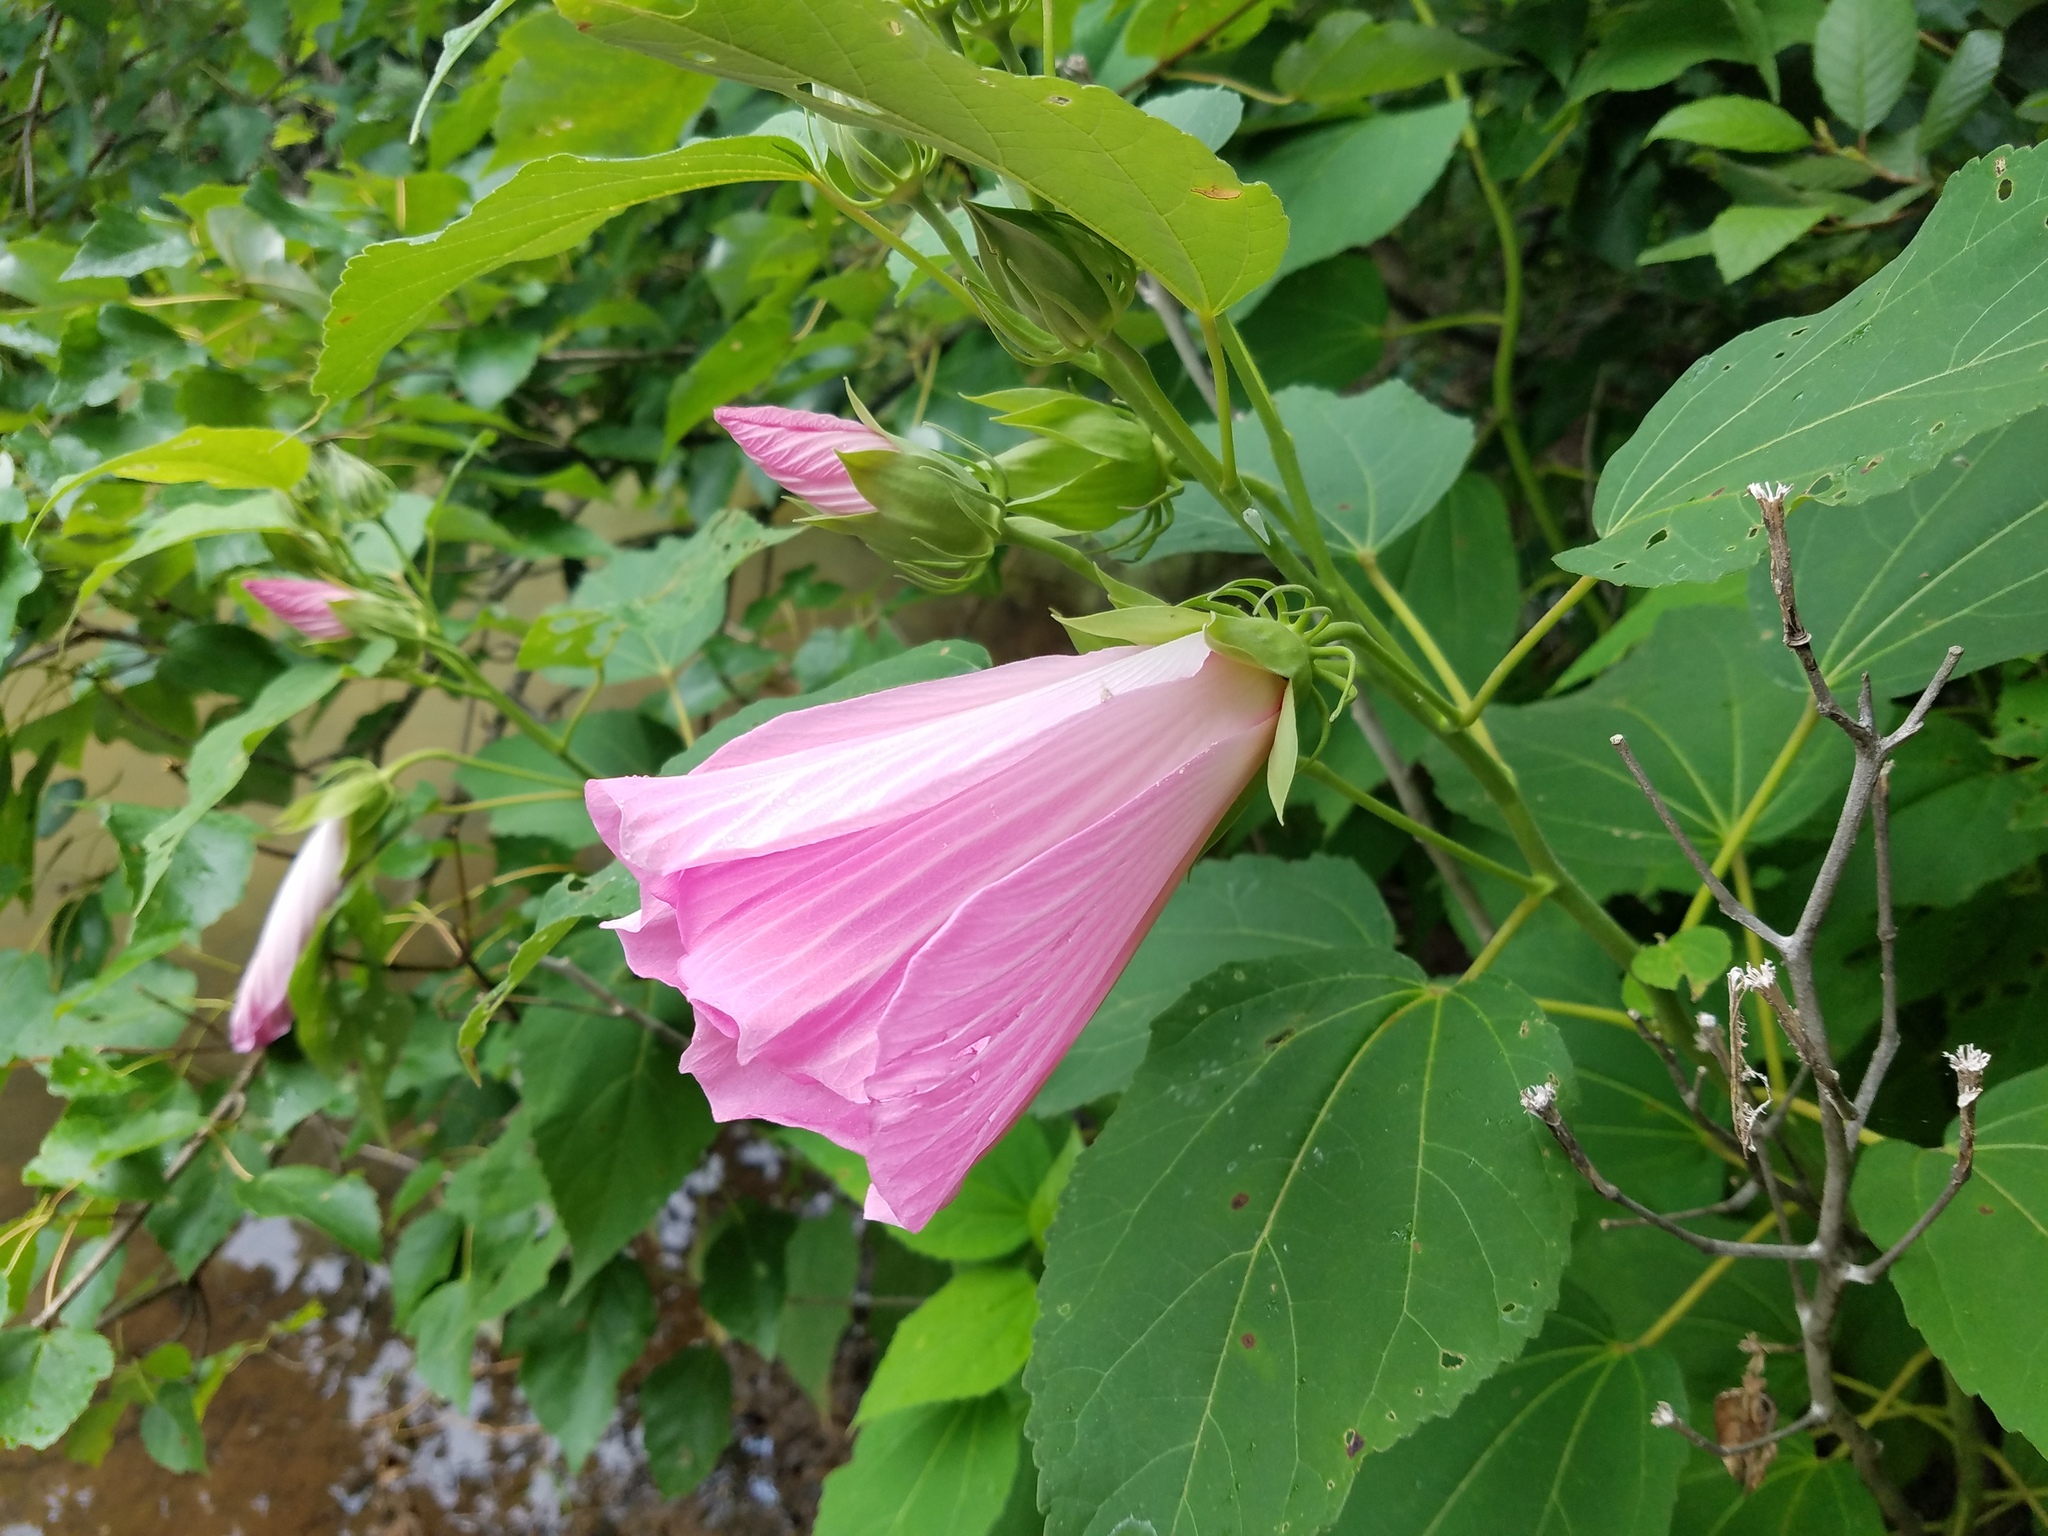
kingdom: Plantae
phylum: Tracheophyta
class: Magnoliopsida
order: Malvales
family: Malvaceae
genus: Hibiscus
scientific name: Hibiscus moscheutos
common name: Common rose-mallow
